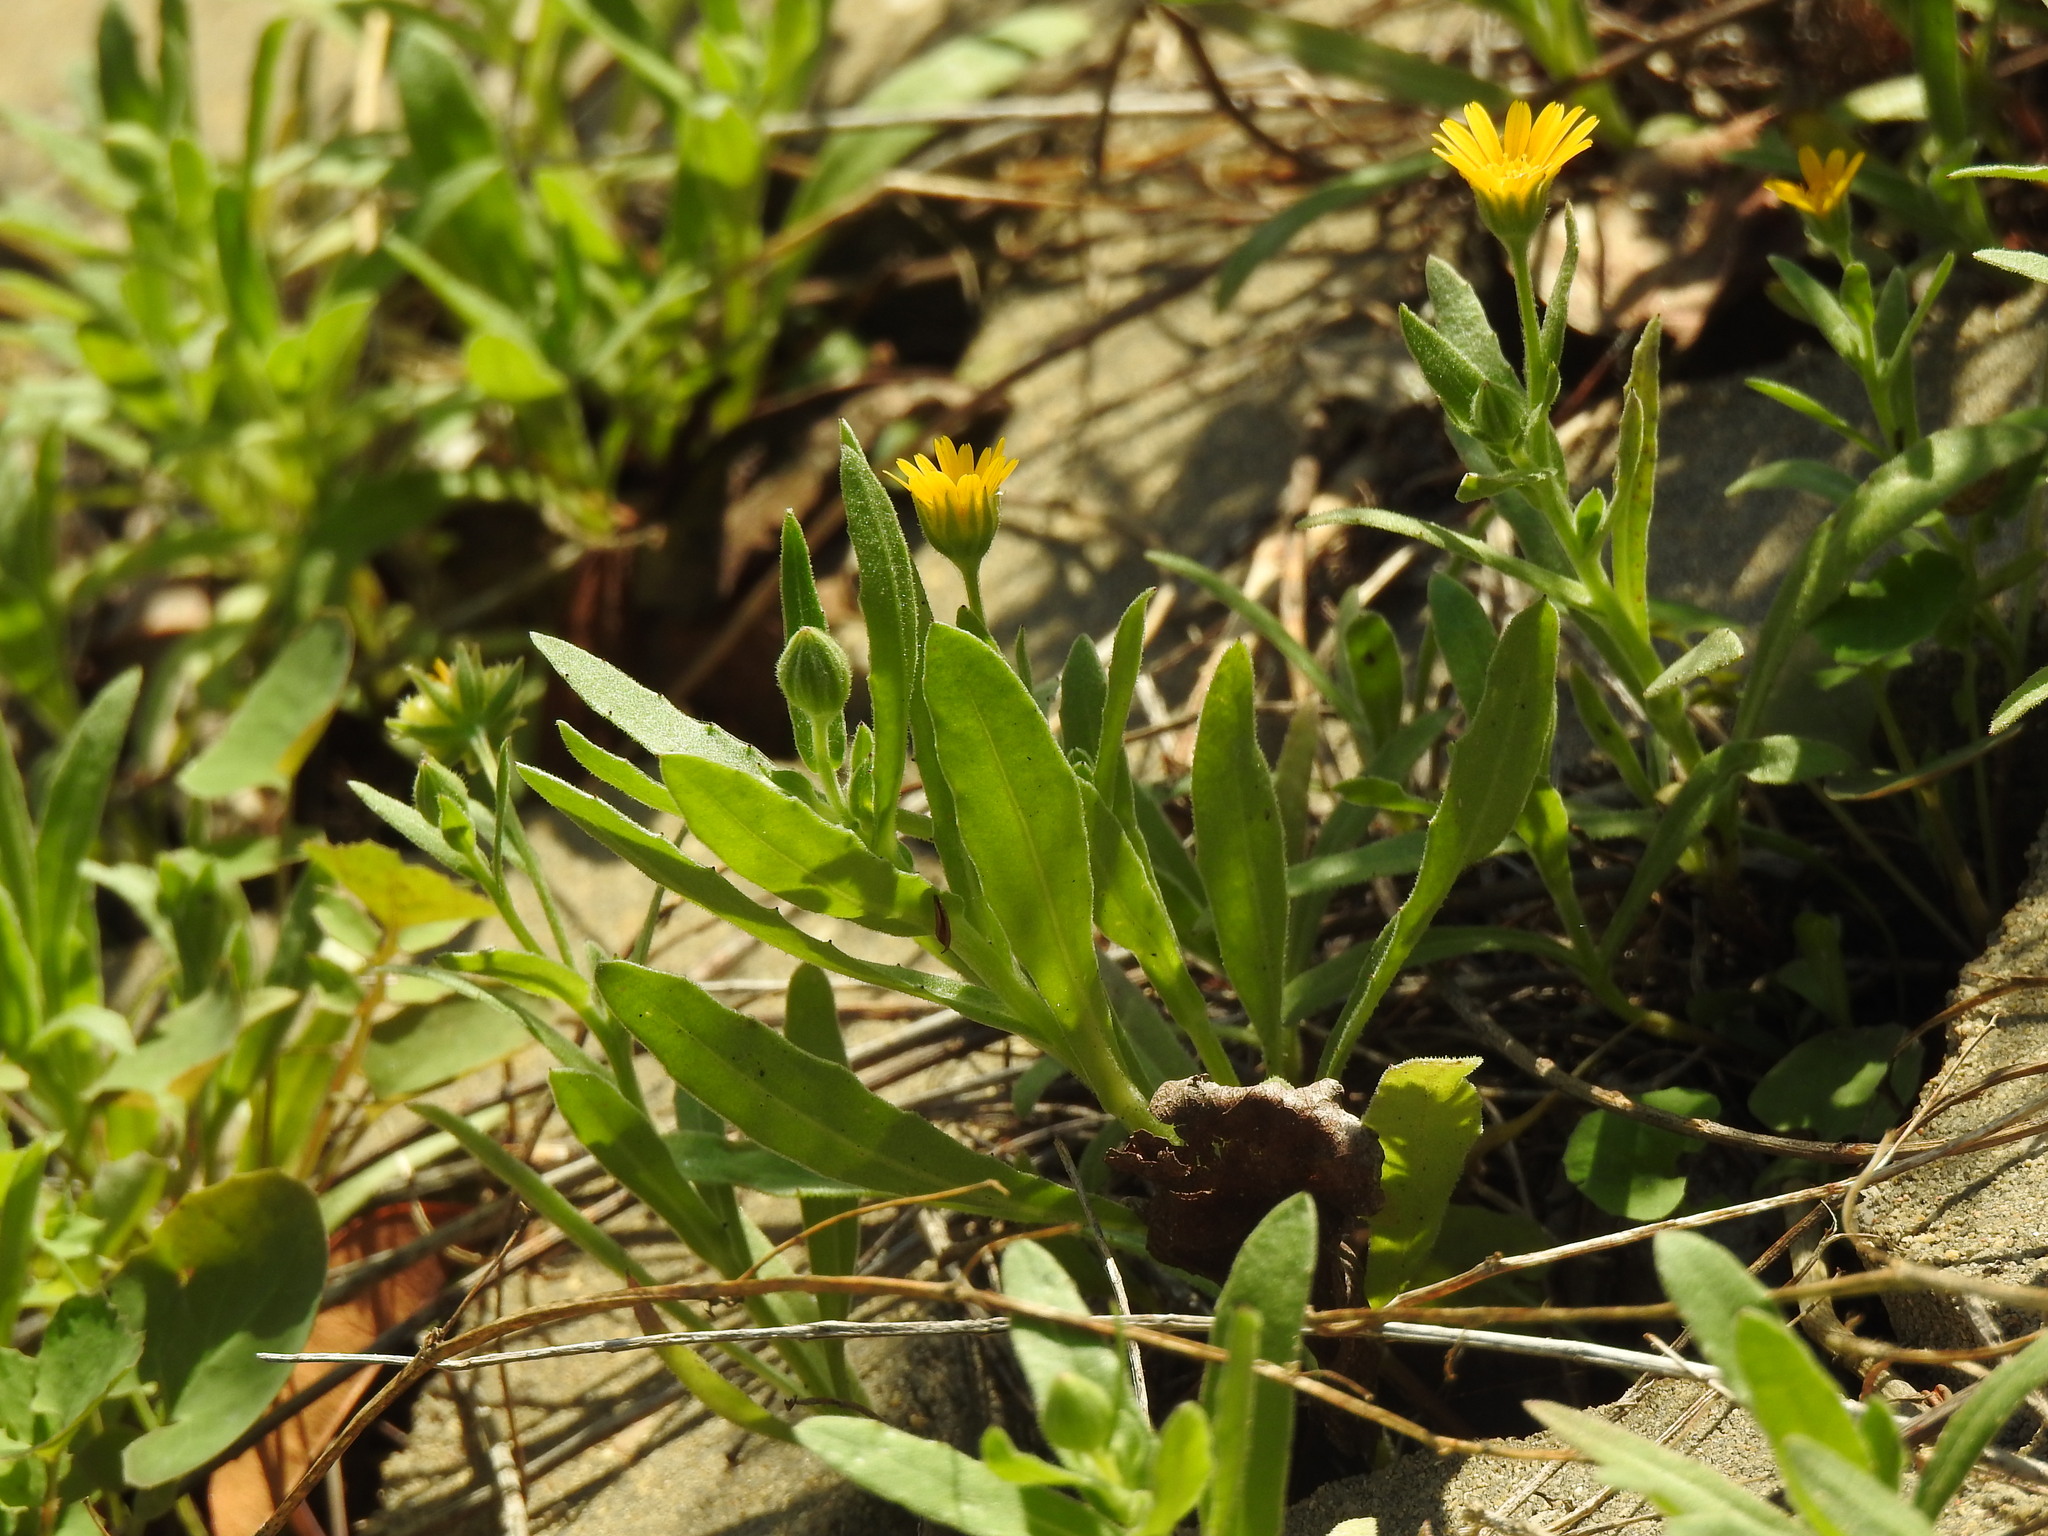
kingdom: Plantae
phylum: Tracheophyta
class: Magnoliopsida
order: Asterales
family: Asteraceae
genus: Calendula
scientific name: Calendula arvensis
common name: Field marigold
